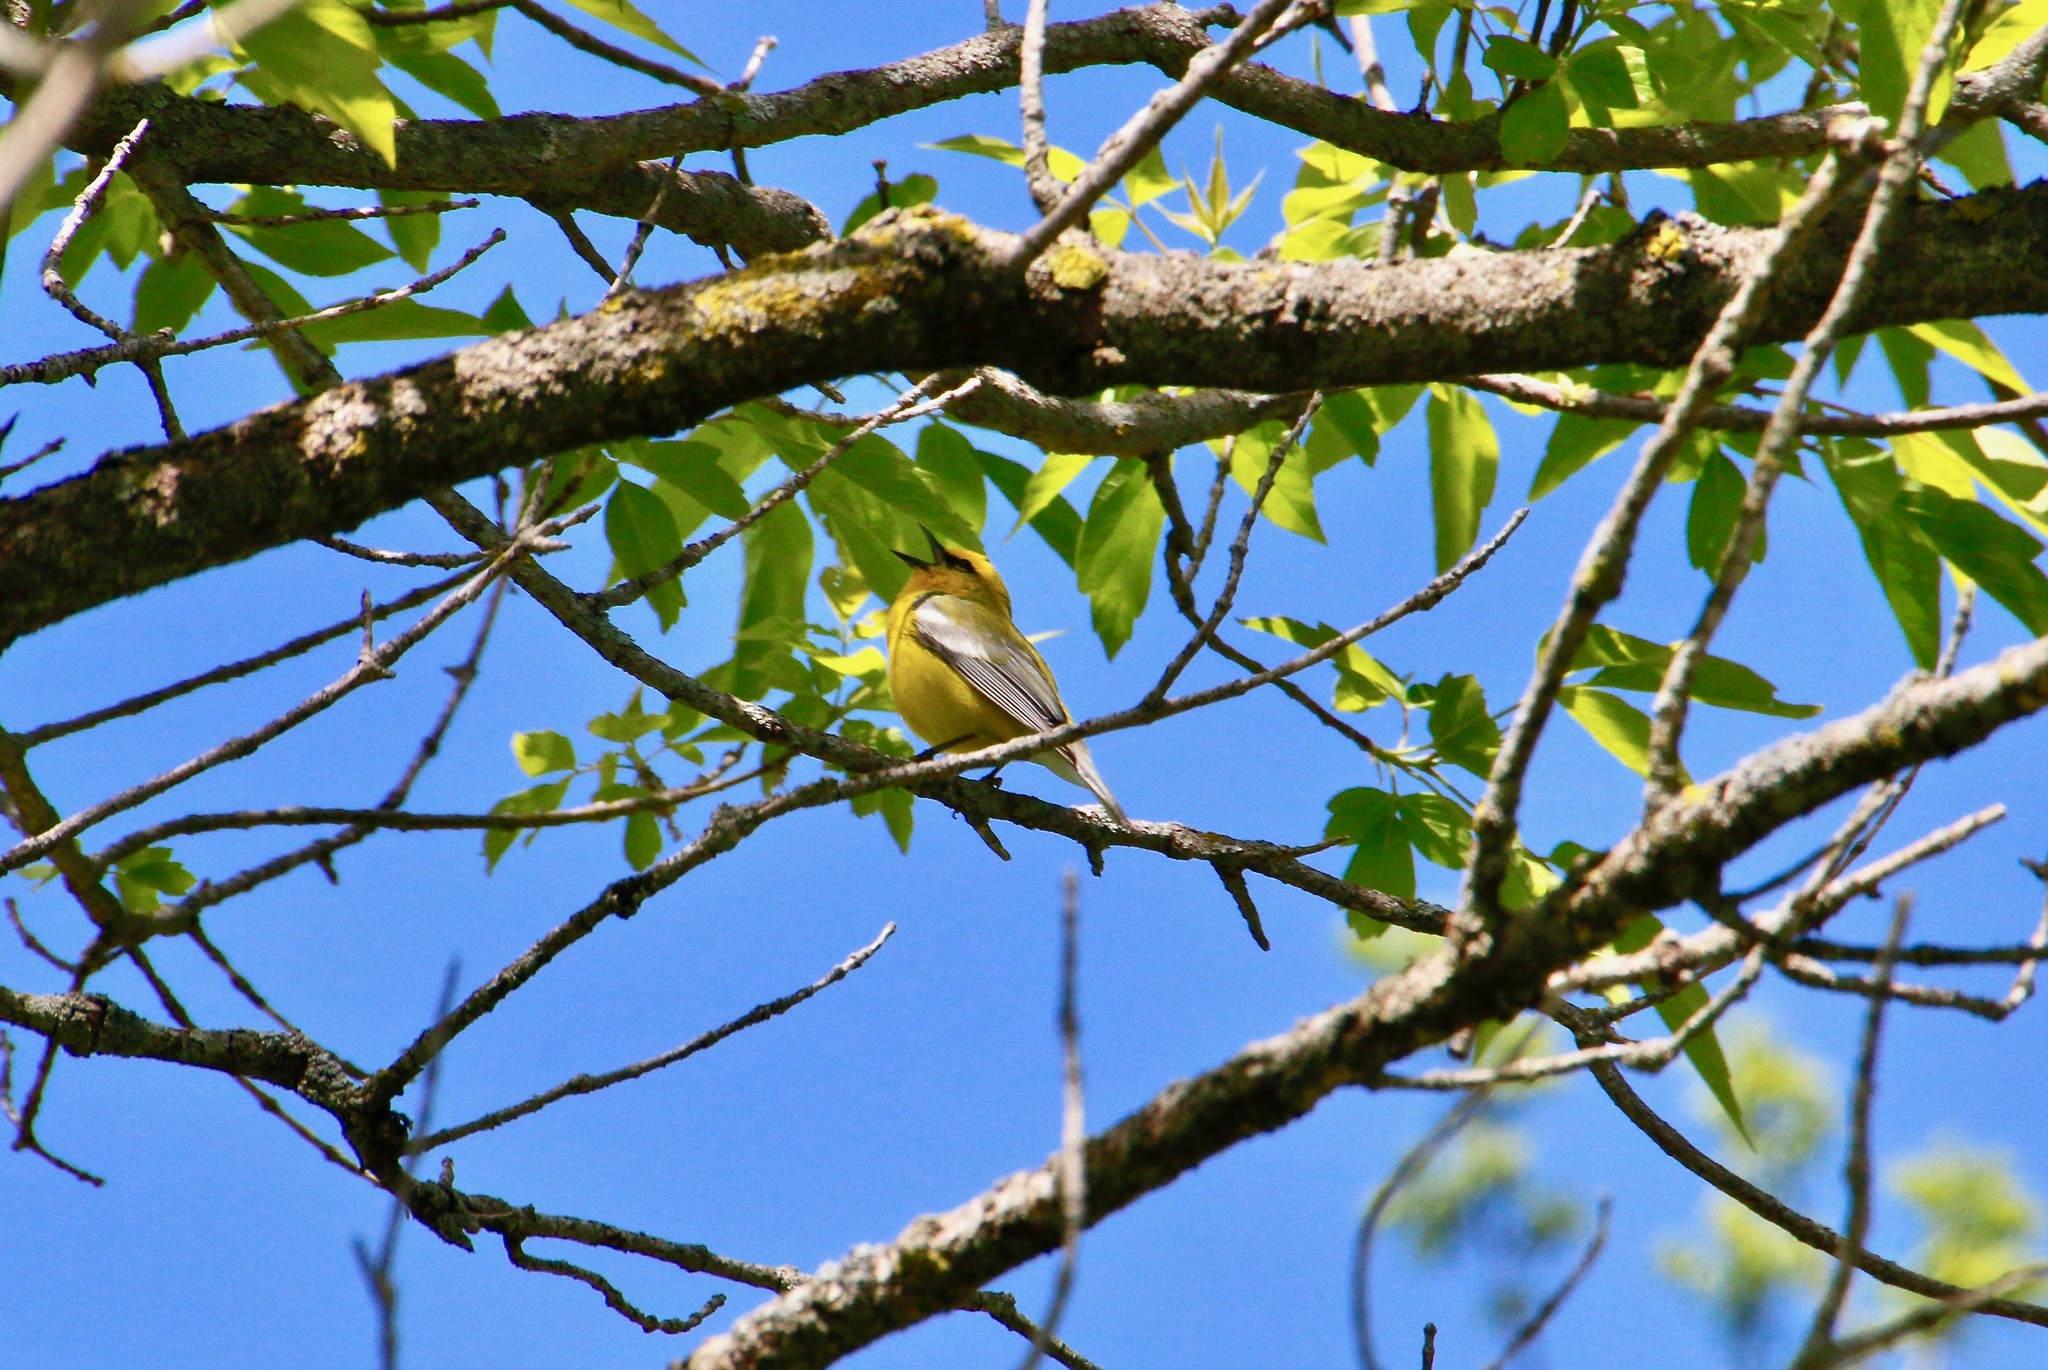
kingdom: Animalia
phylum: Chordata
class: Aves
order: Passeriformes
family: Parulidae
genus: Vermivora
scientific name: Vermivora cyanoptera
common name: Blue-winged warbler
